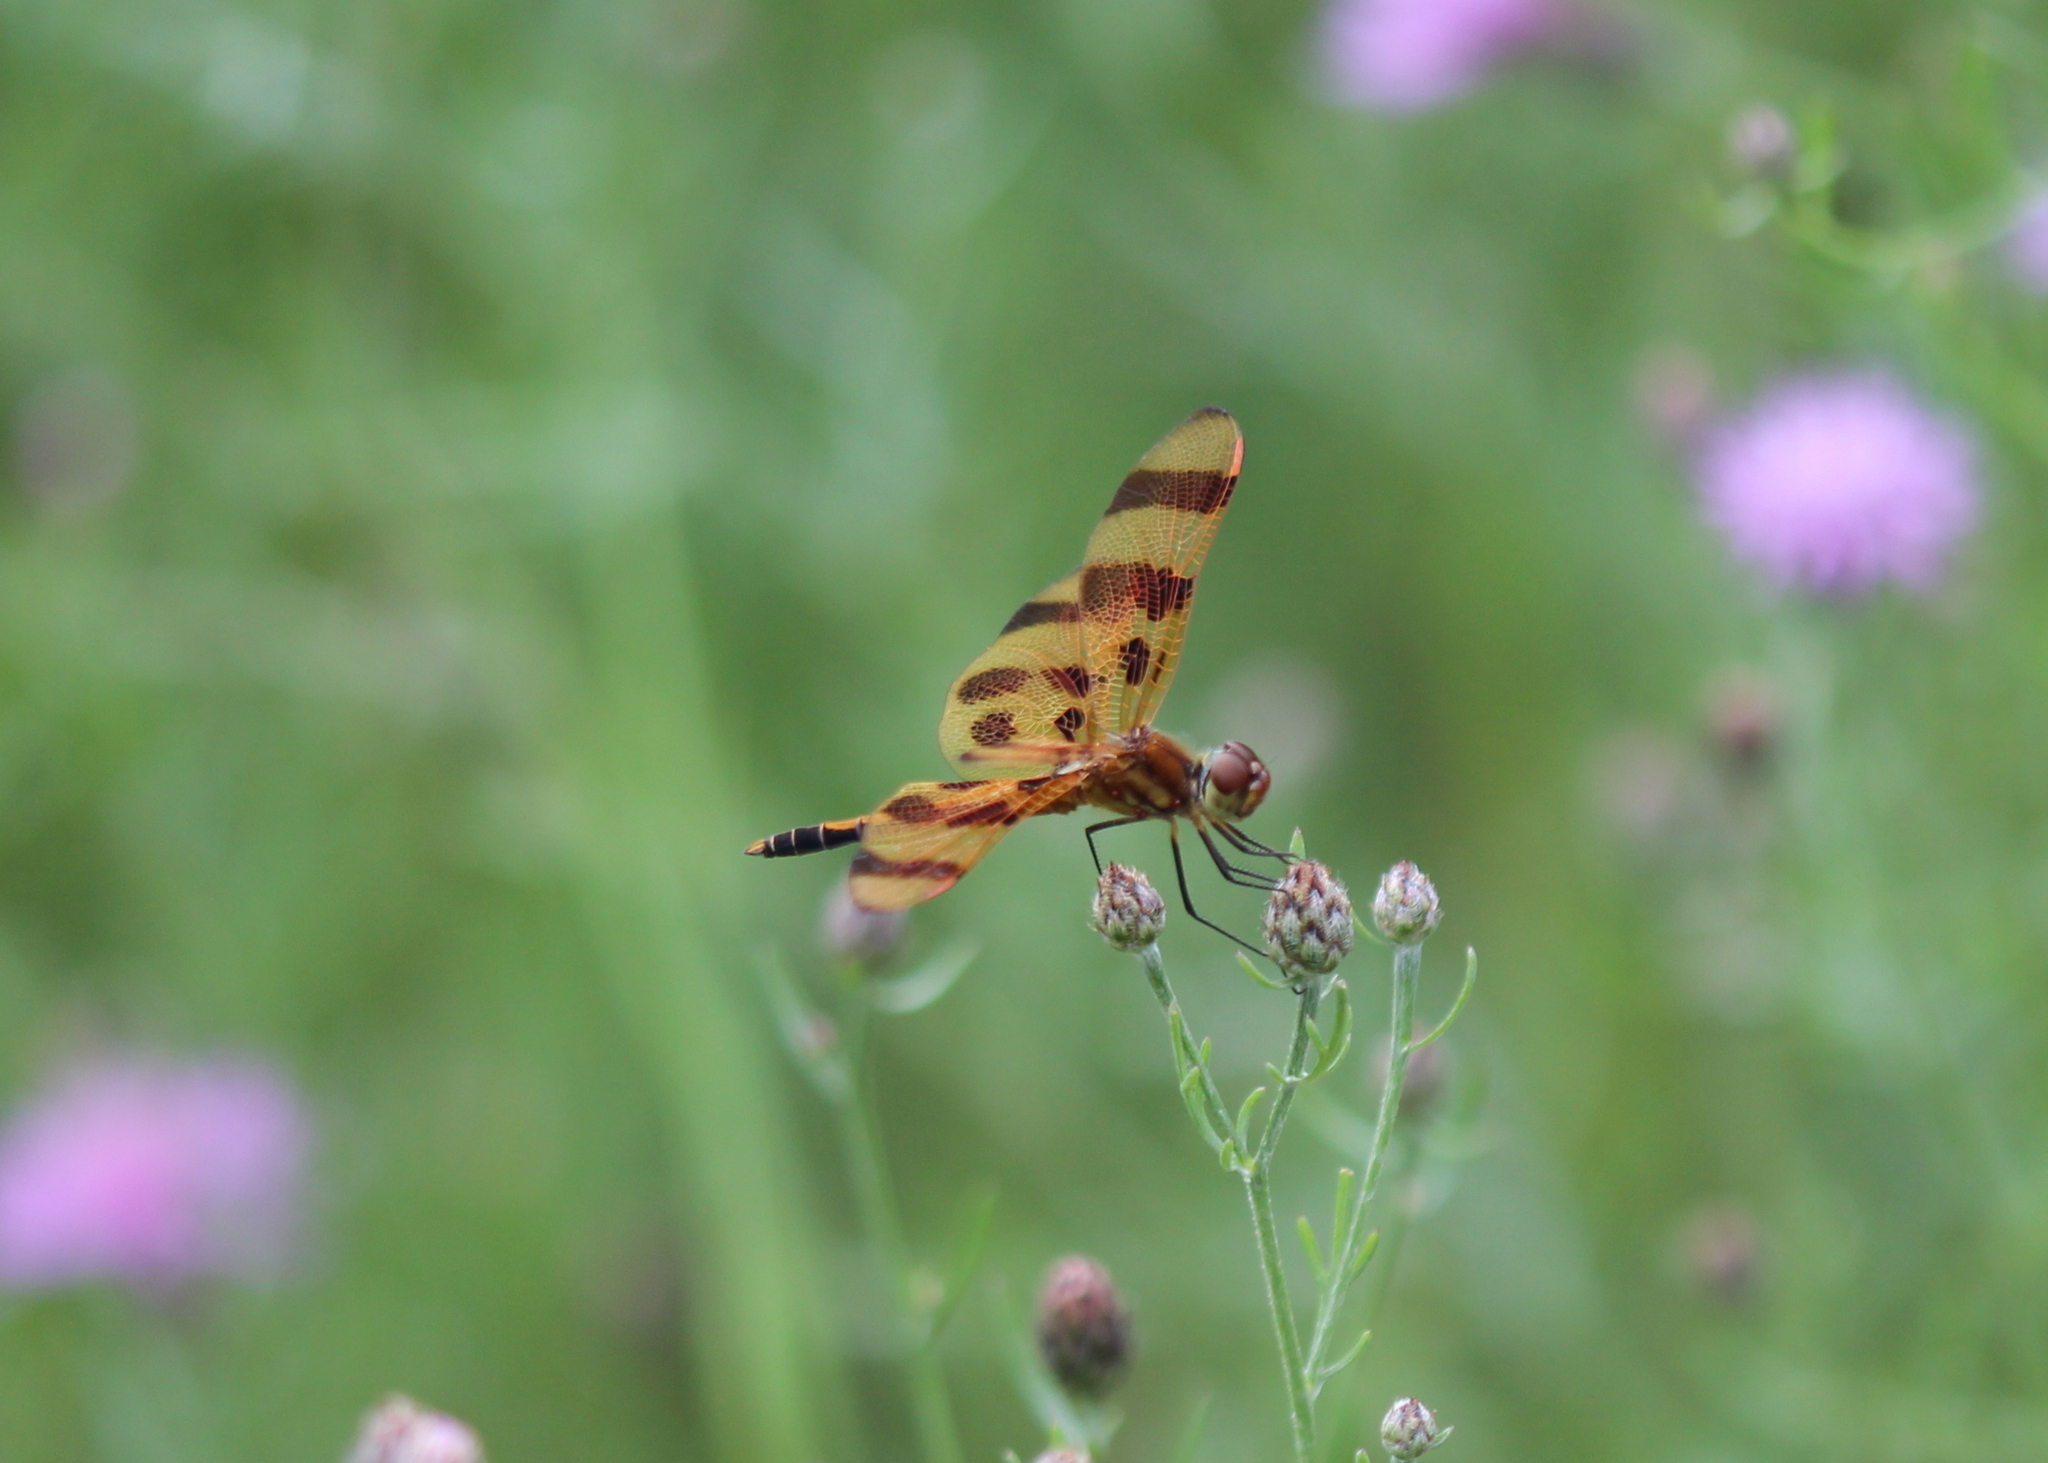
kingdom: Animalia
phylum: Arthropoda
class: Insecta
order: Odonata
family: Libellulidae
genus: Celithemis
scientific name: Celithemis eponina
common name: Halloween pennant
